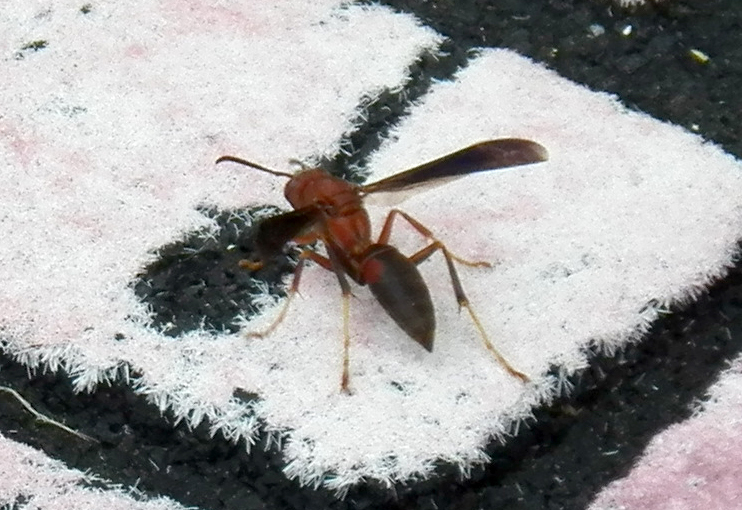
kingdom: Animalia
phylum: Arthropoda
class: Insecta
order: Hymenoptera
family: Vespidae
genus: Fuscopolistes
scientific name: Fuscopolistes
